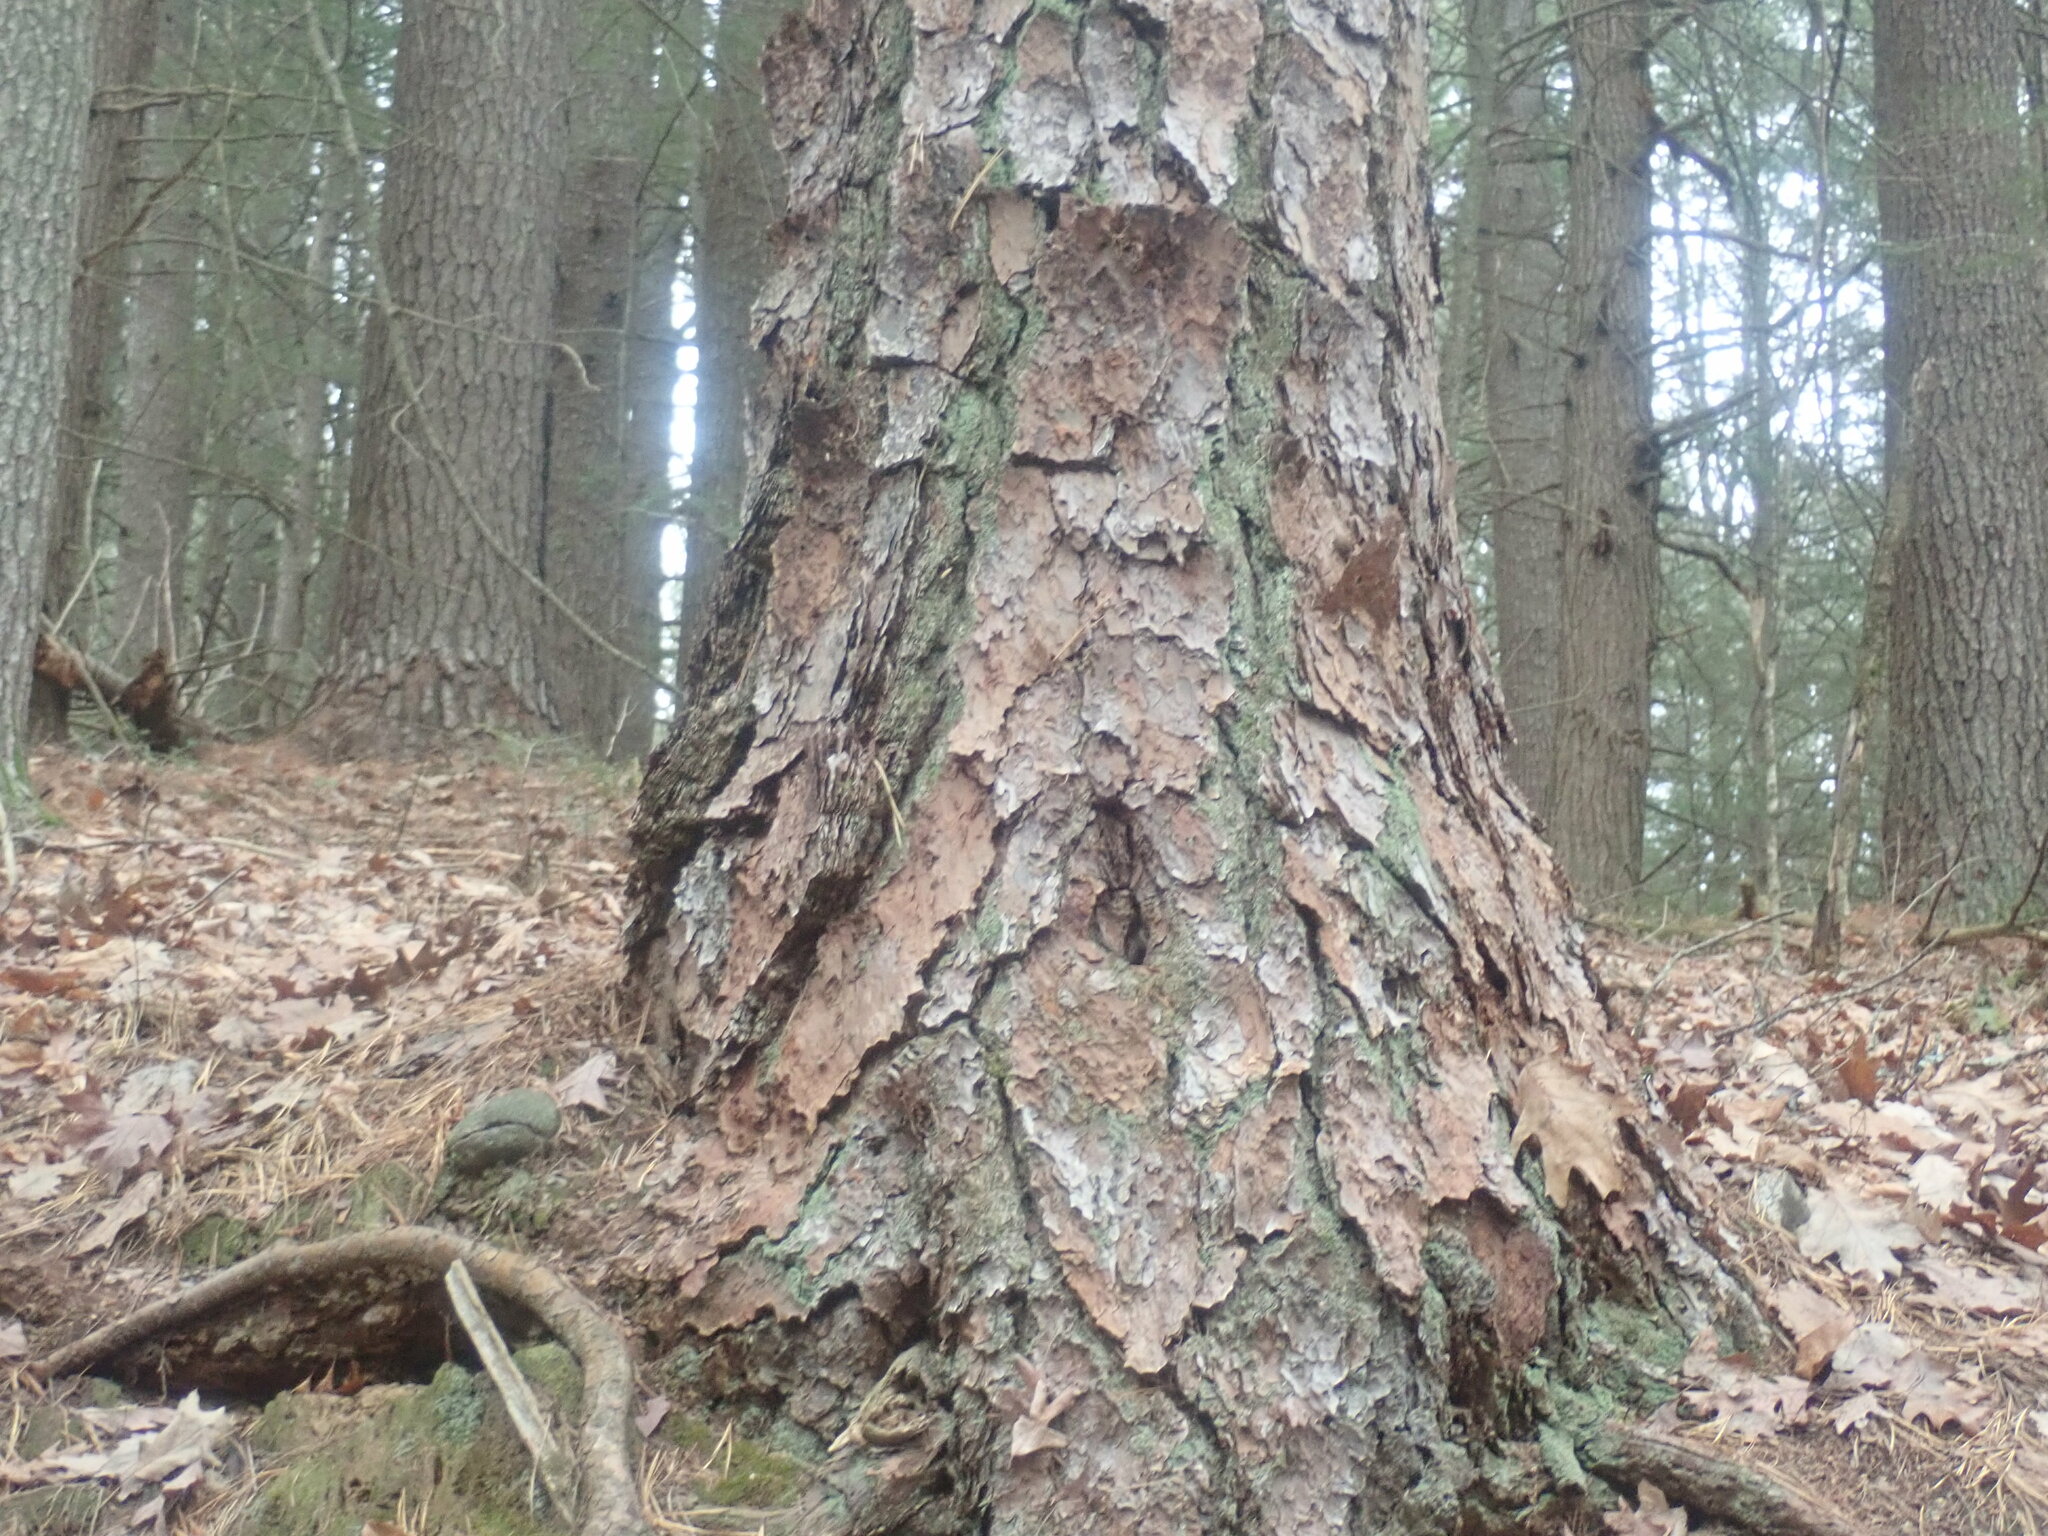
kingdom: Plantae
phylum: Tracheophyta
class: Pinopsida
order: Pinales
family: Pinaceae
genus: Pinus
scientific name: Pinus rigida
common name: Pitch pine
